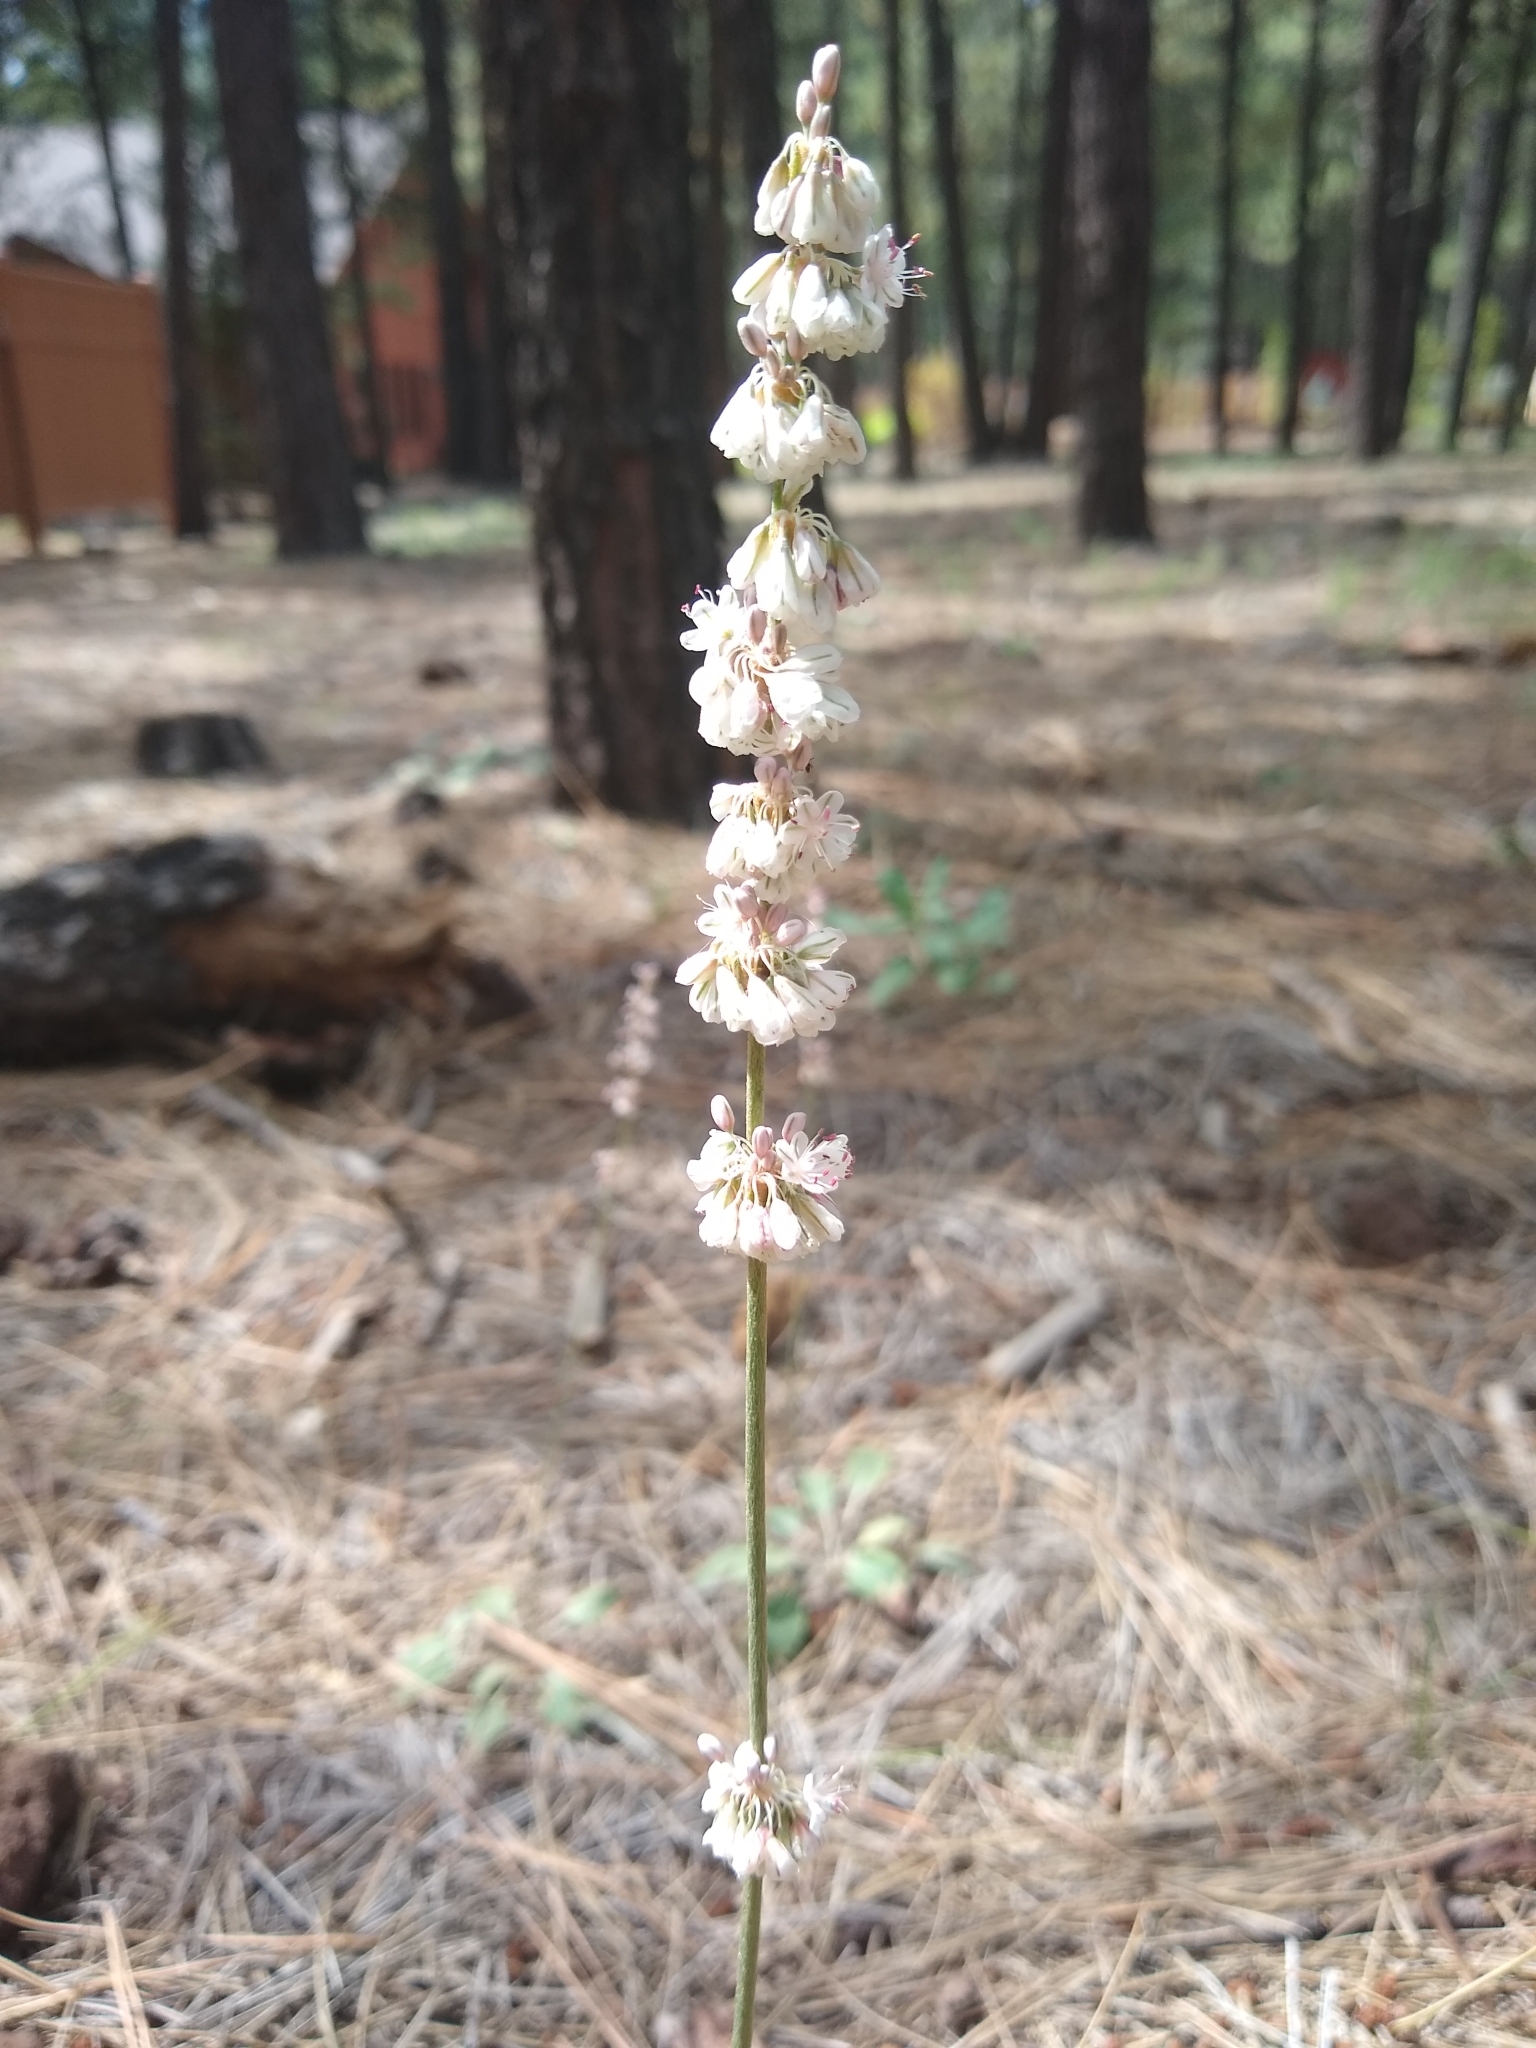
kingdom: Plantae
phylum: Tracheophyta
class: Magnoliopsida
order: Caryophyllales
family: Polygonaceae
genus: Eriogonum
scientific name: Eriogonum racemosum
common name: Redroot wild buckwheat
